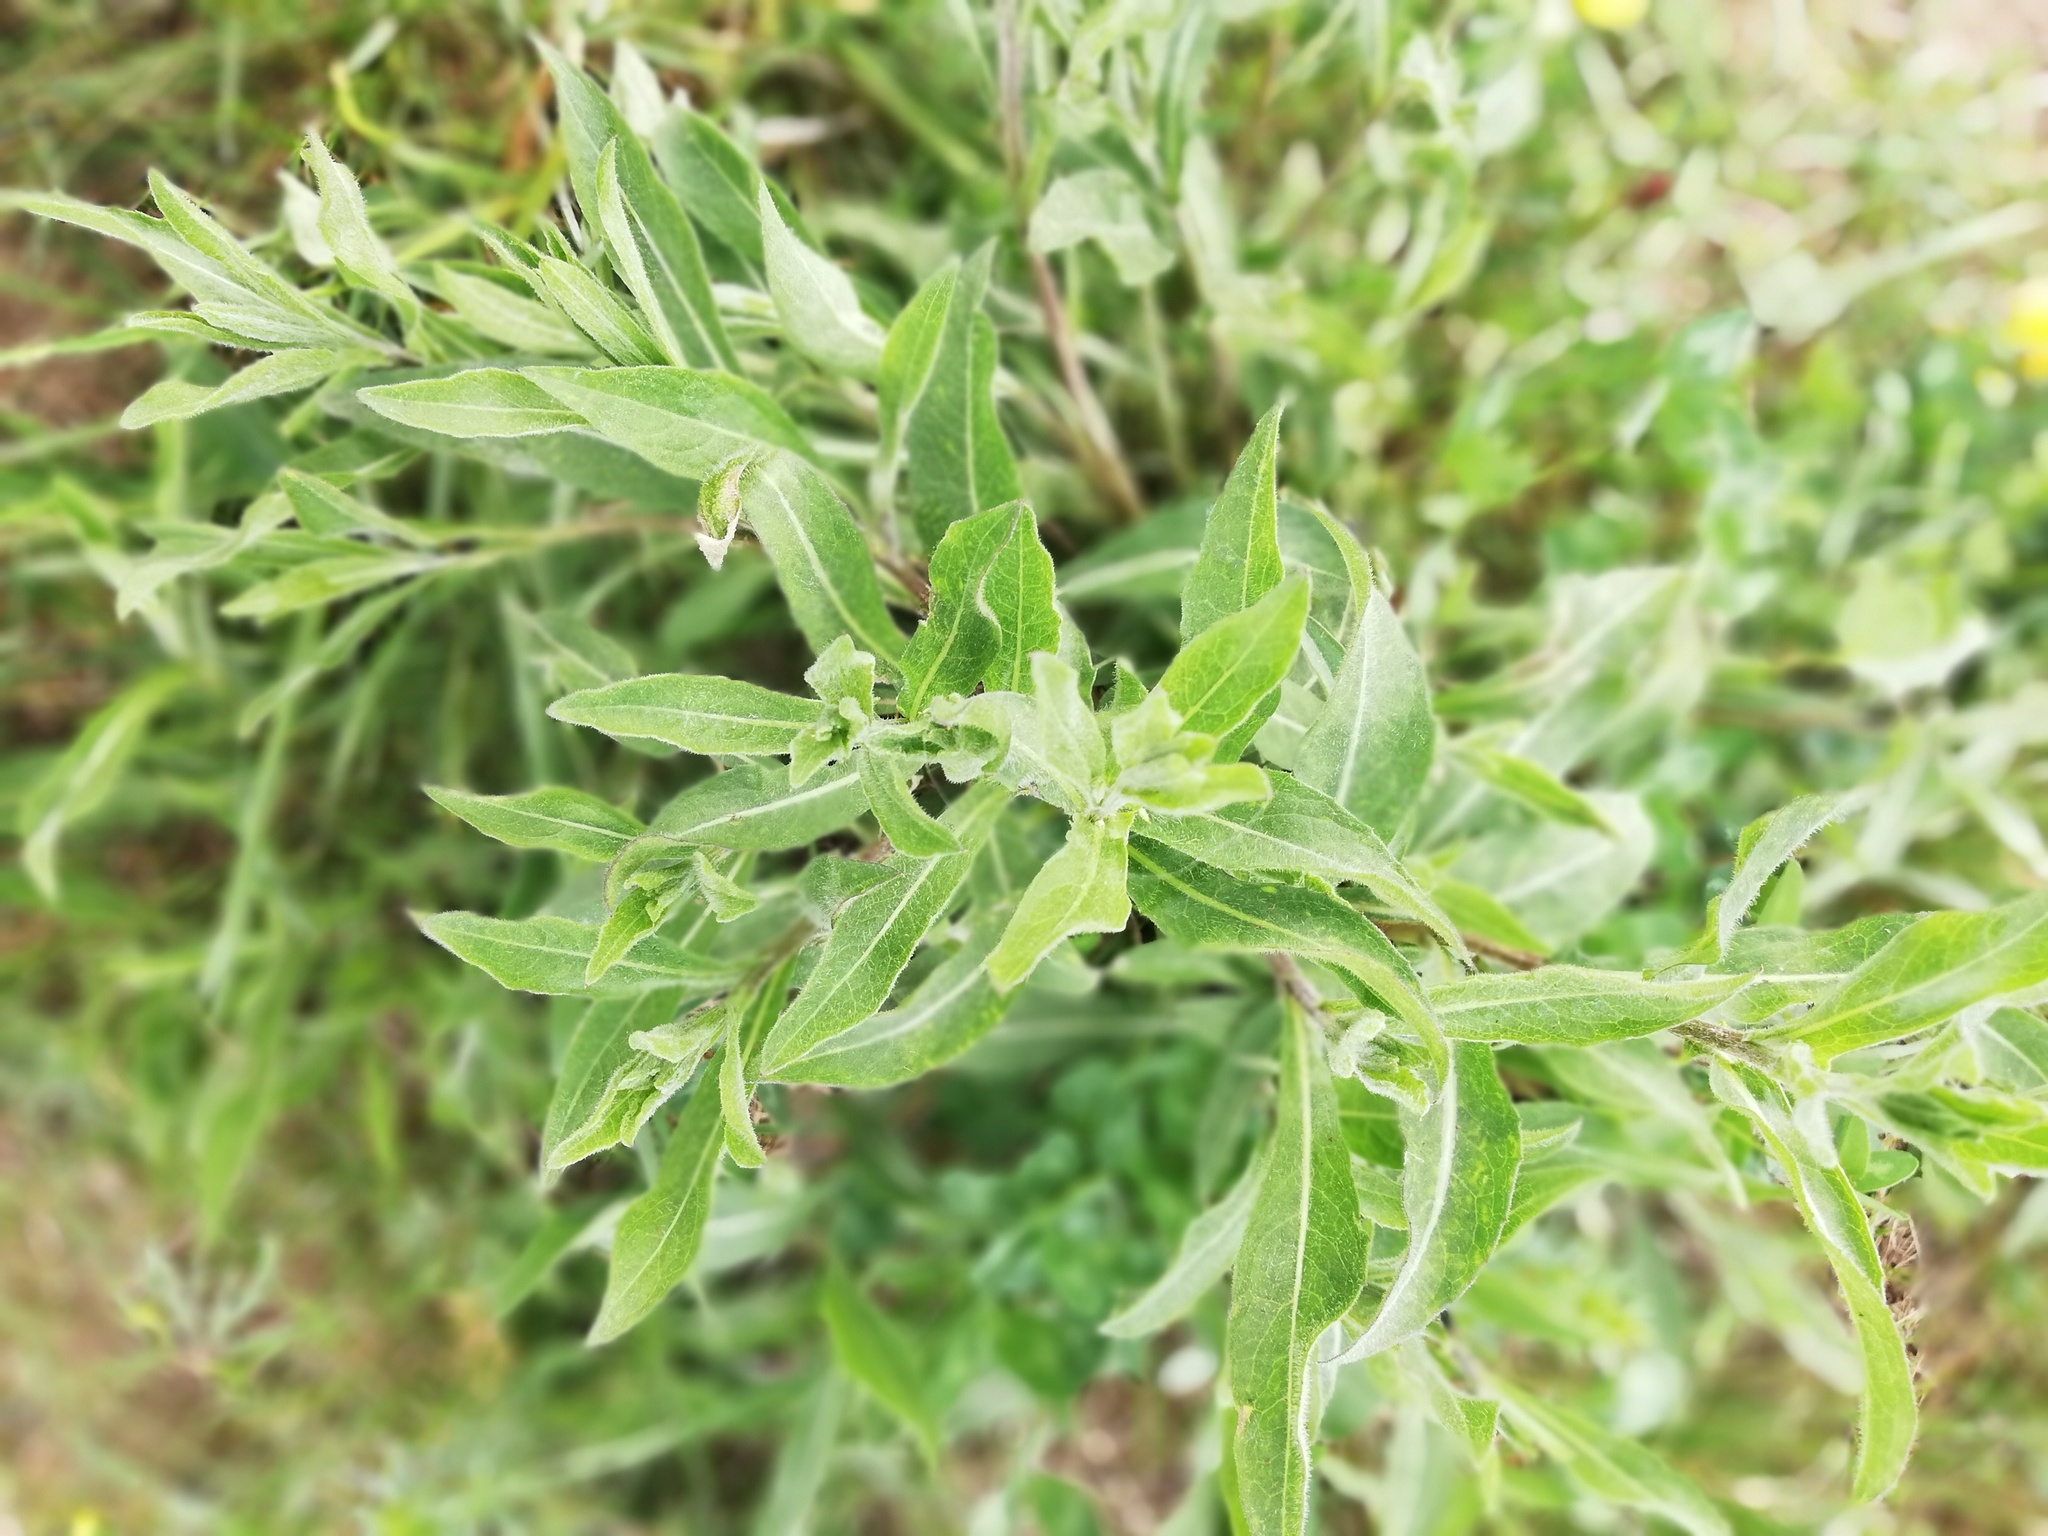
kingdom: Plantae
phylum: Tracheophyta
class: Magnoliopsida
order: Asterales
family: Asteraceae
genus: Centaurea
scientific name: Centaurea jacea
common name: Brown knapweed
